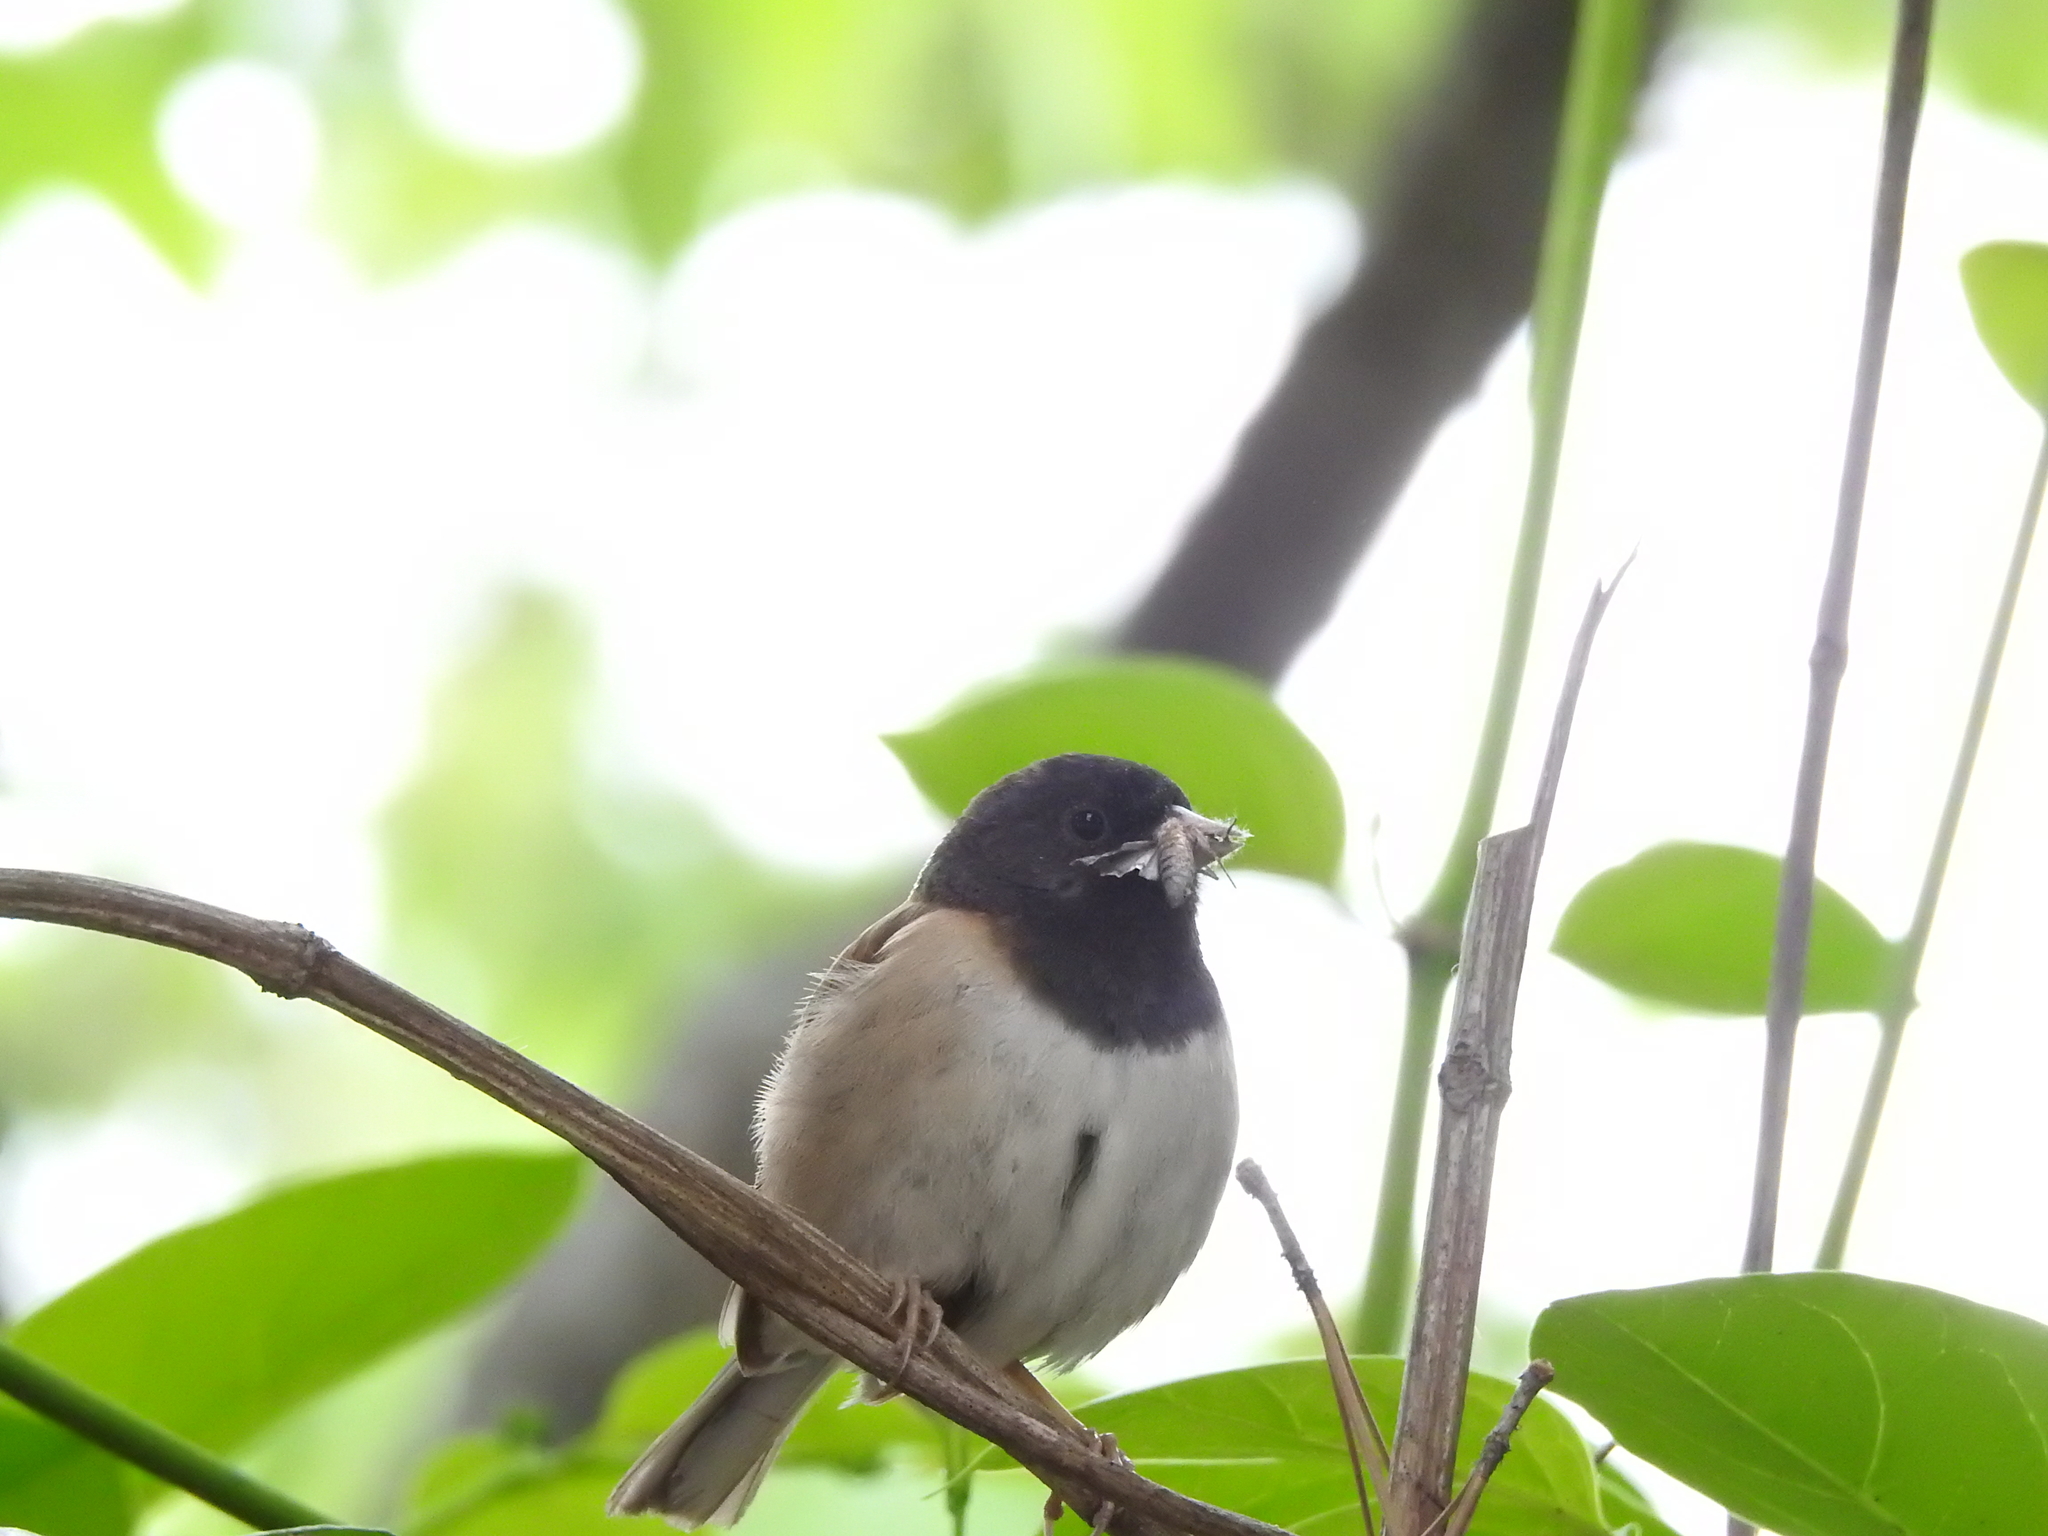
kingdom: Animalia
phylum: Chordata
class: Aves
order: Passeriformes
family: Passerellidae
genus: Junco
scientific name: Junco hyemalis
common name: Dark-eyed junco
